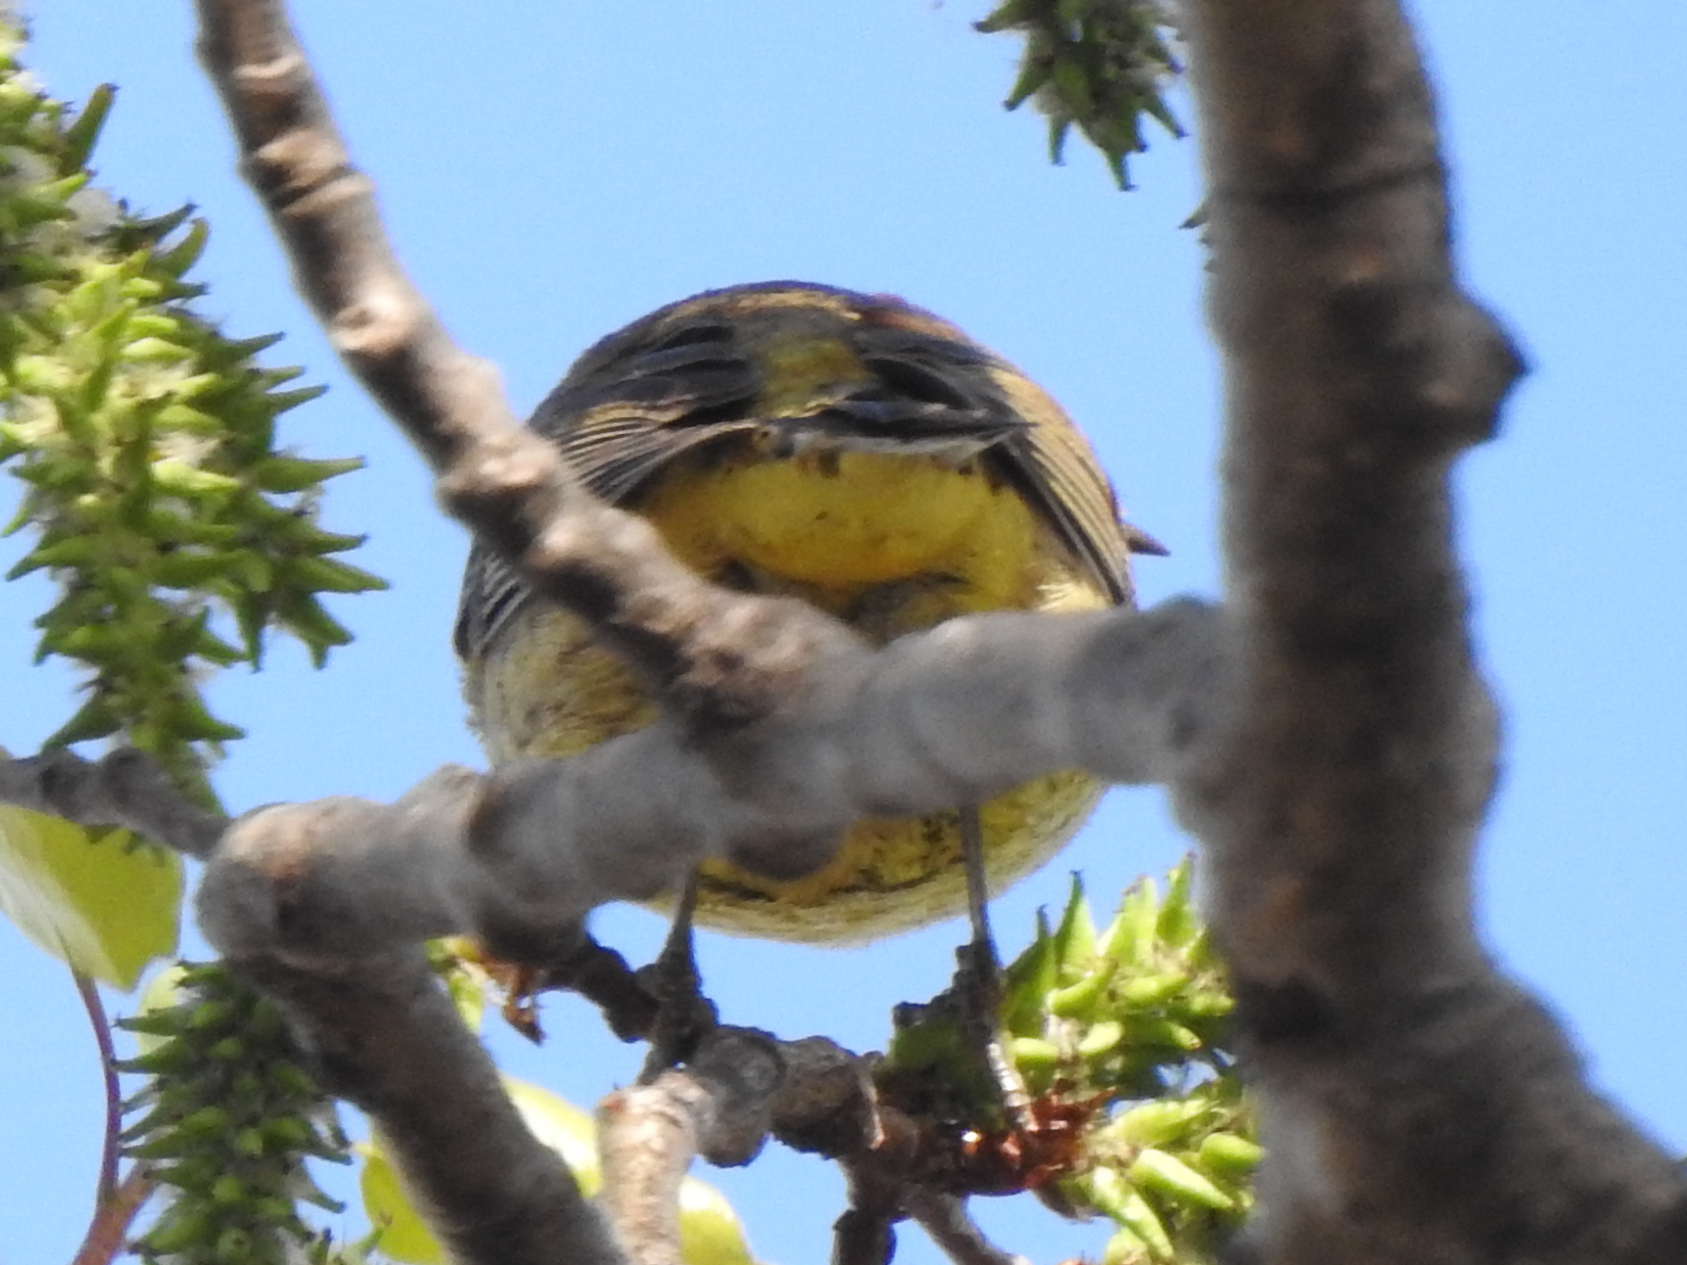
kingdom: Animalia
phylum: Chordata
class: Aves
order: Passeriformes
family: Parulidae
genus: Setophaga
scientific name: Setophaga palmarum
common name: Palm warbler
